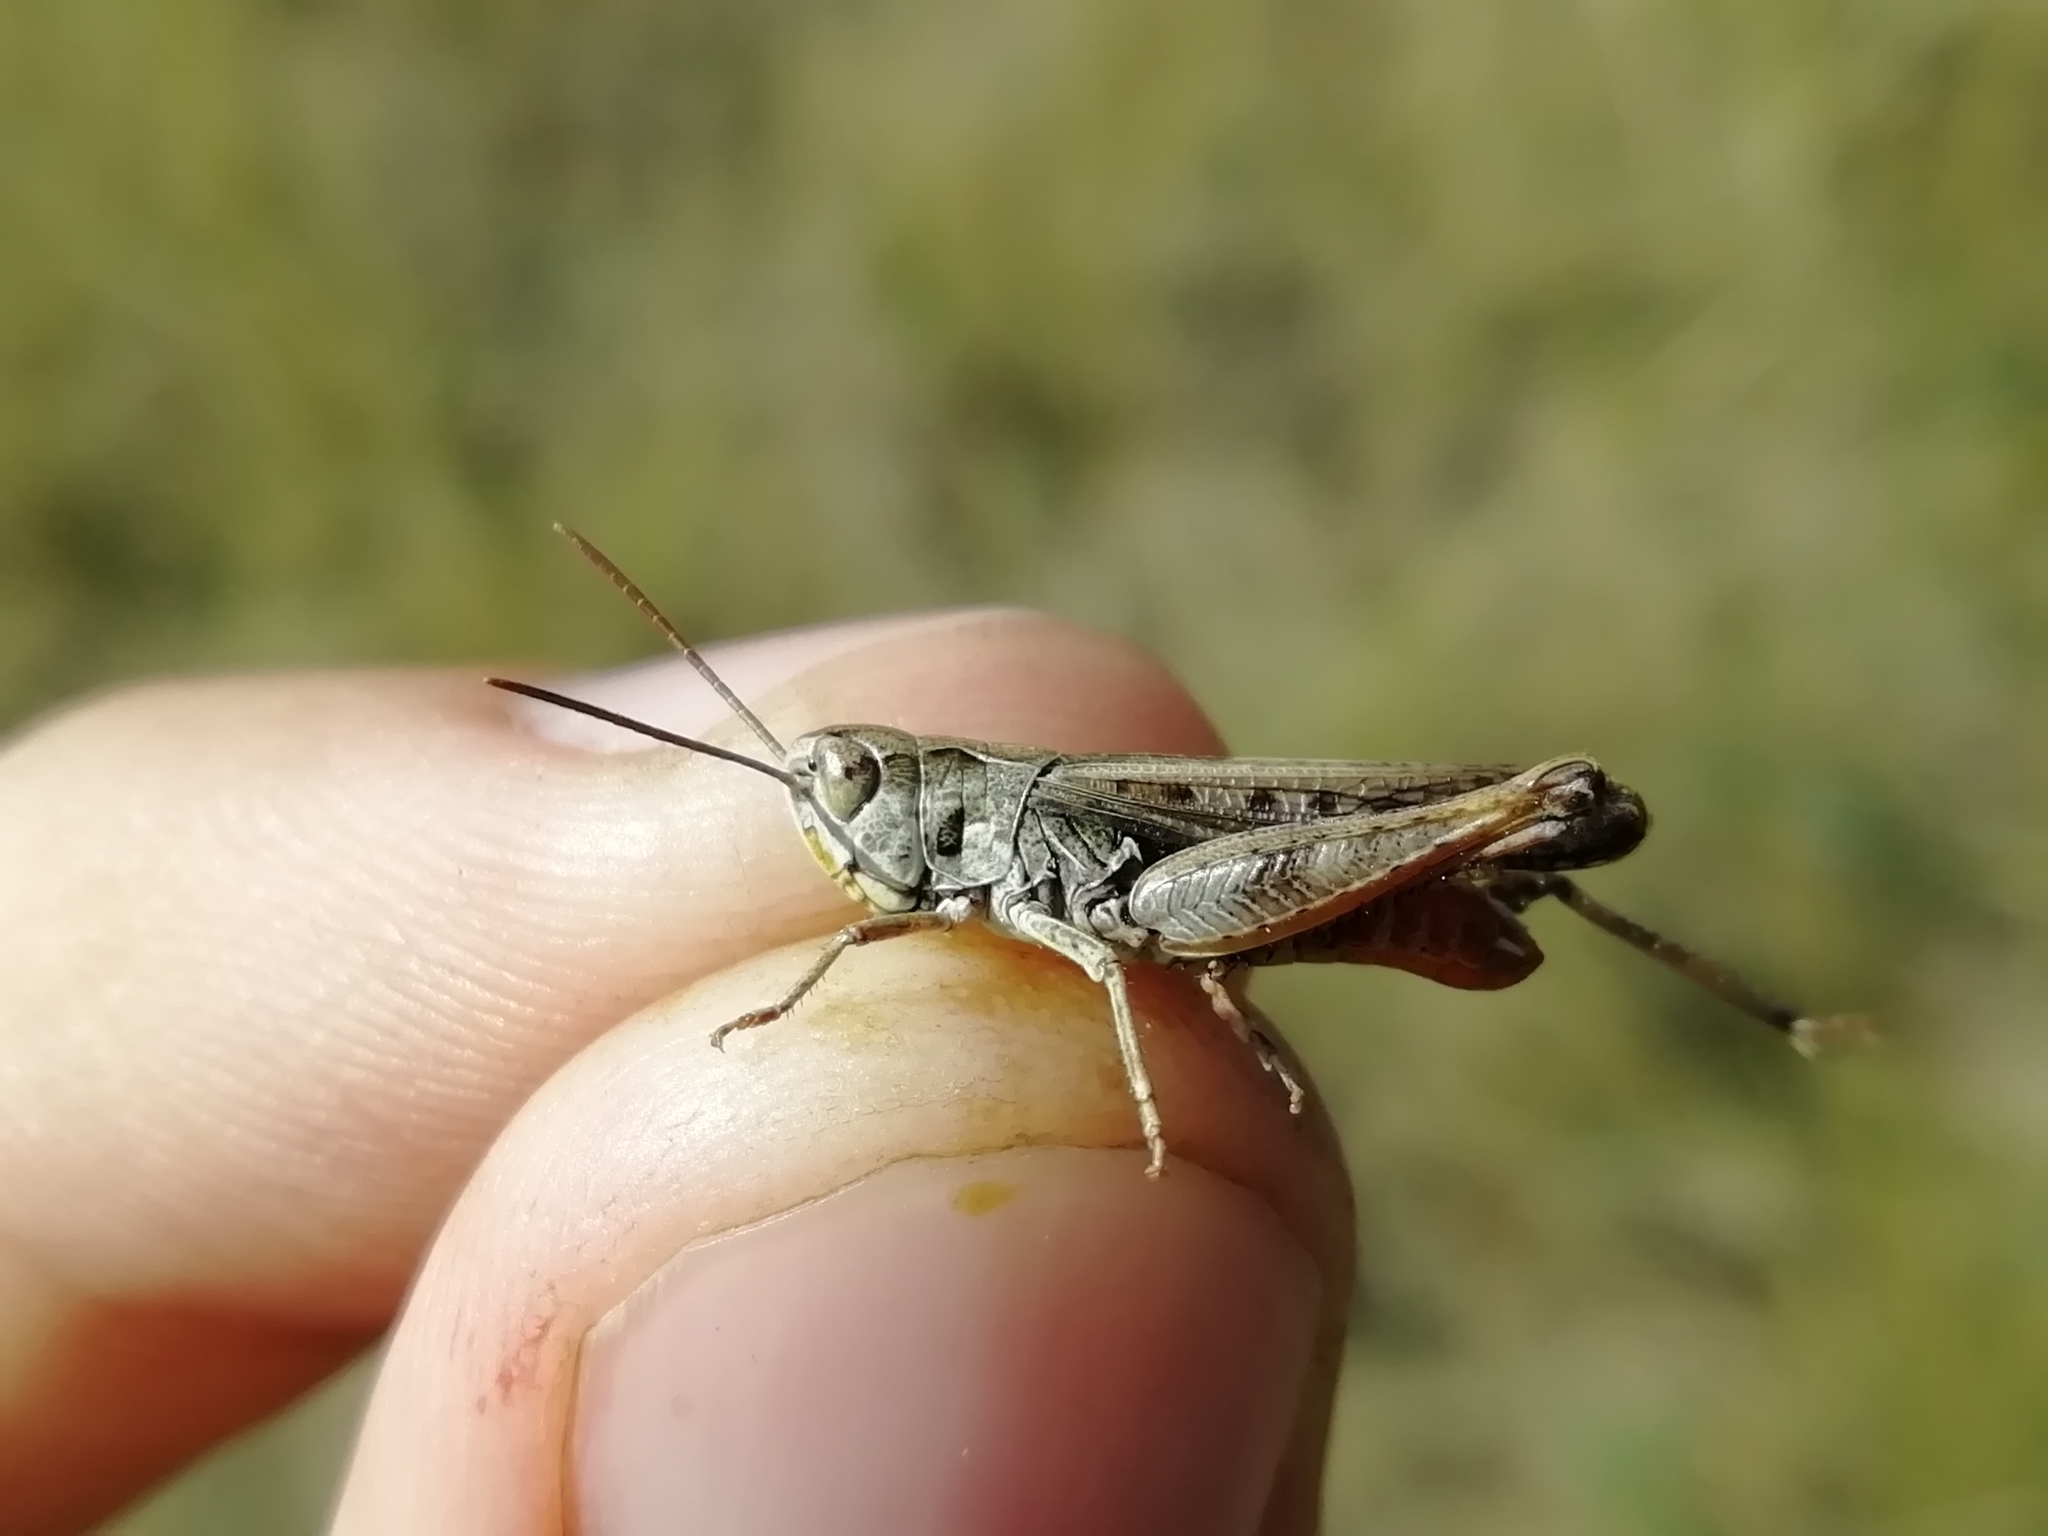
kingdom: Animalia
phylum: Arthropoda
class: Insecta
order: Orthoptera
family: Acrididae
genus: Omocestus
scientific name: Omocestus haemorrhoidalis
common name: Orange-tipped grasshopper
